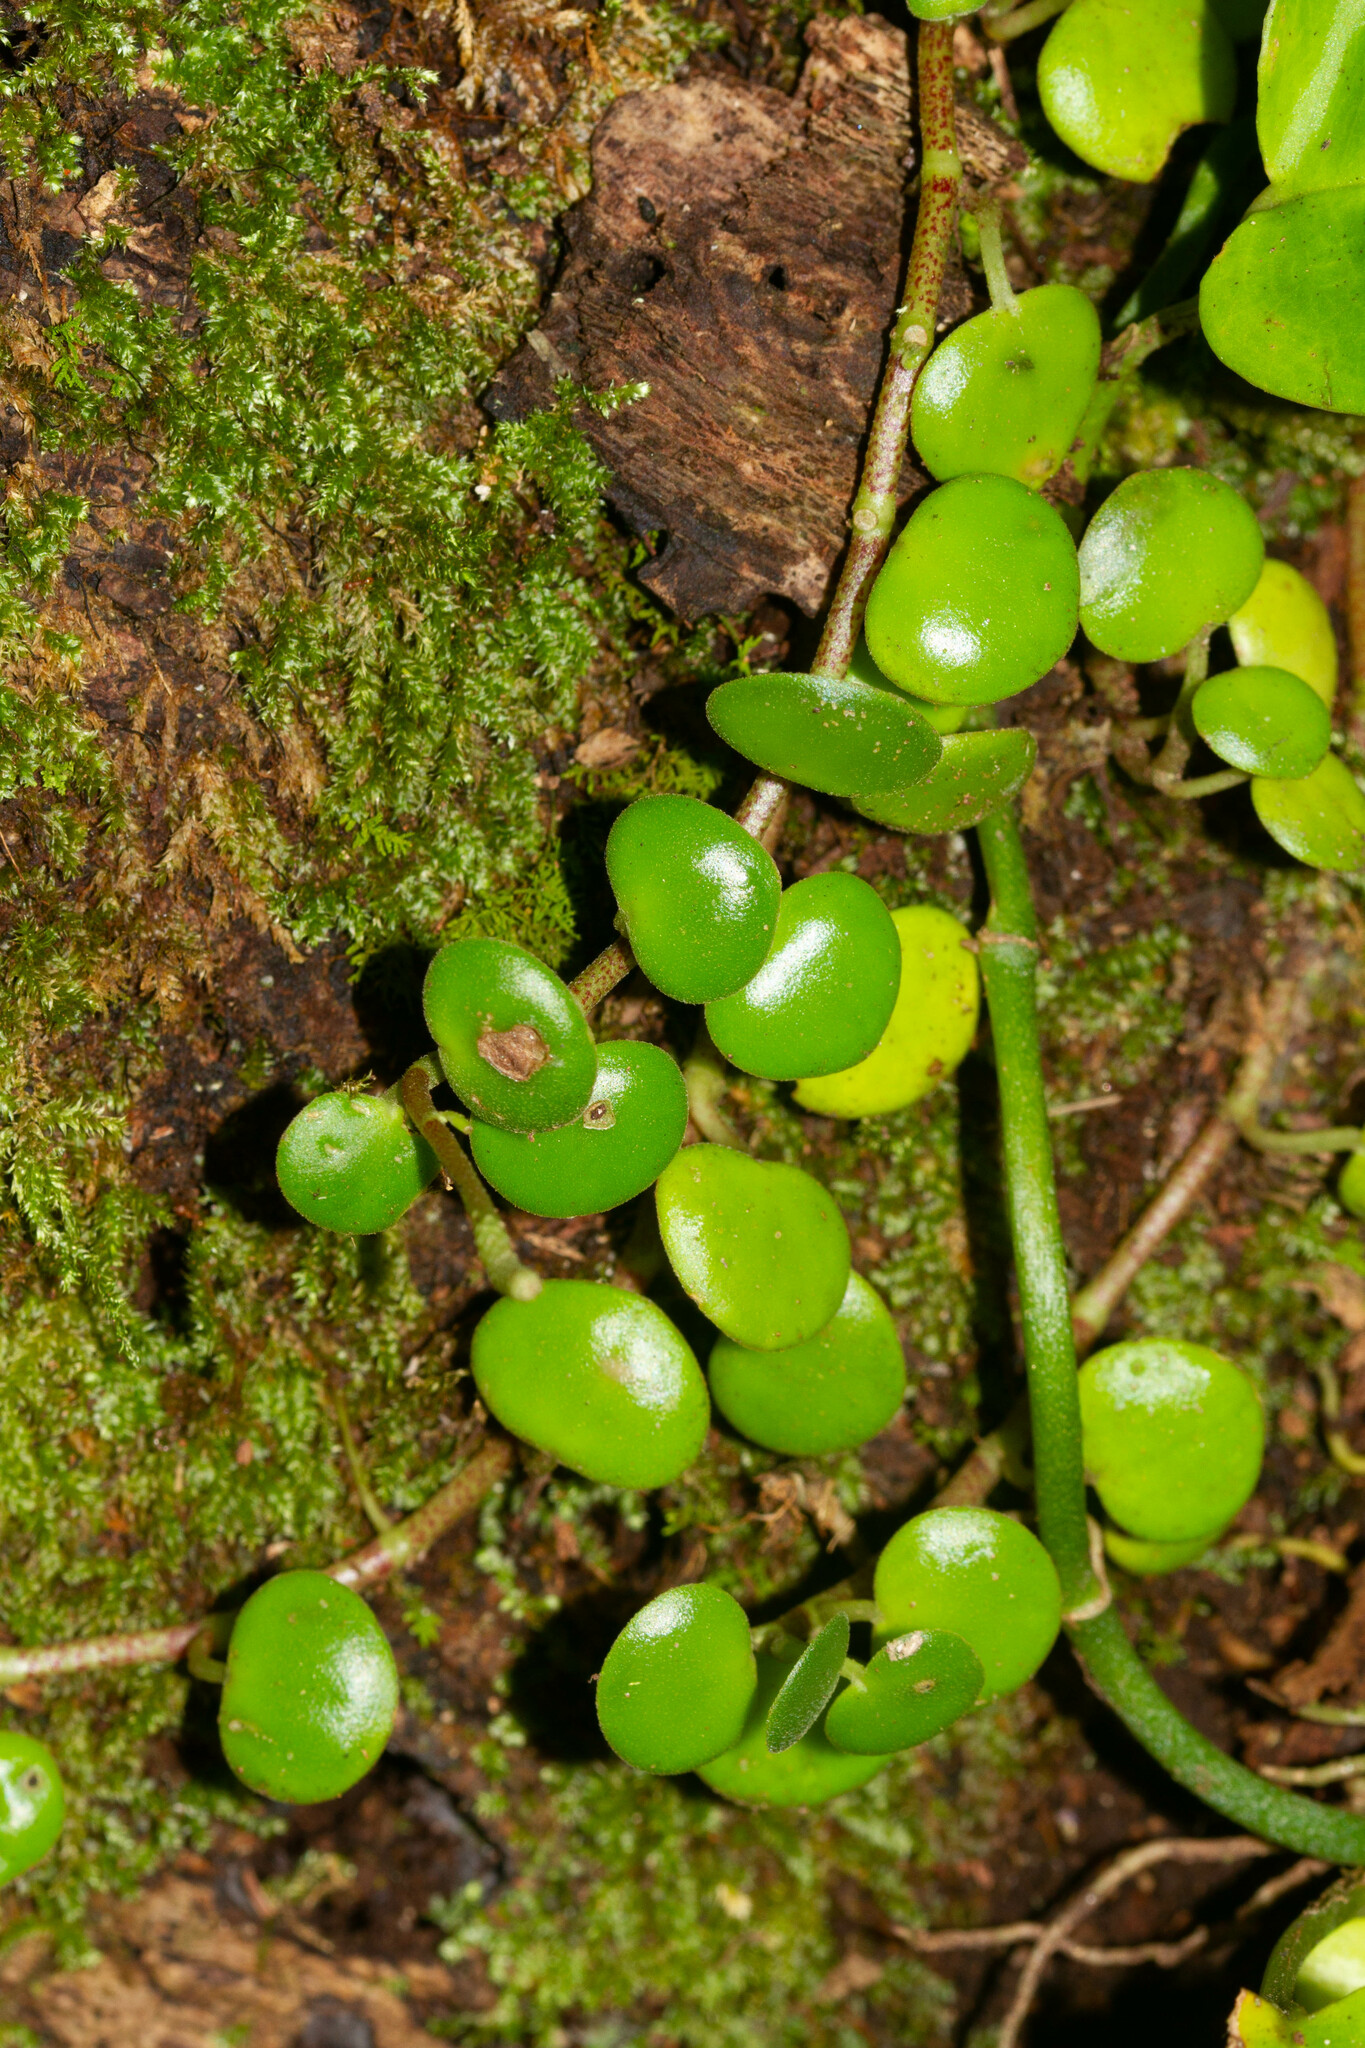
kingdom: Plantae
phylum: Tracheophyta
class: Magnoliopsida
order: Piperales
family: Piperaceae
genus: Peperomia
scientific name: Peperomia serpens
